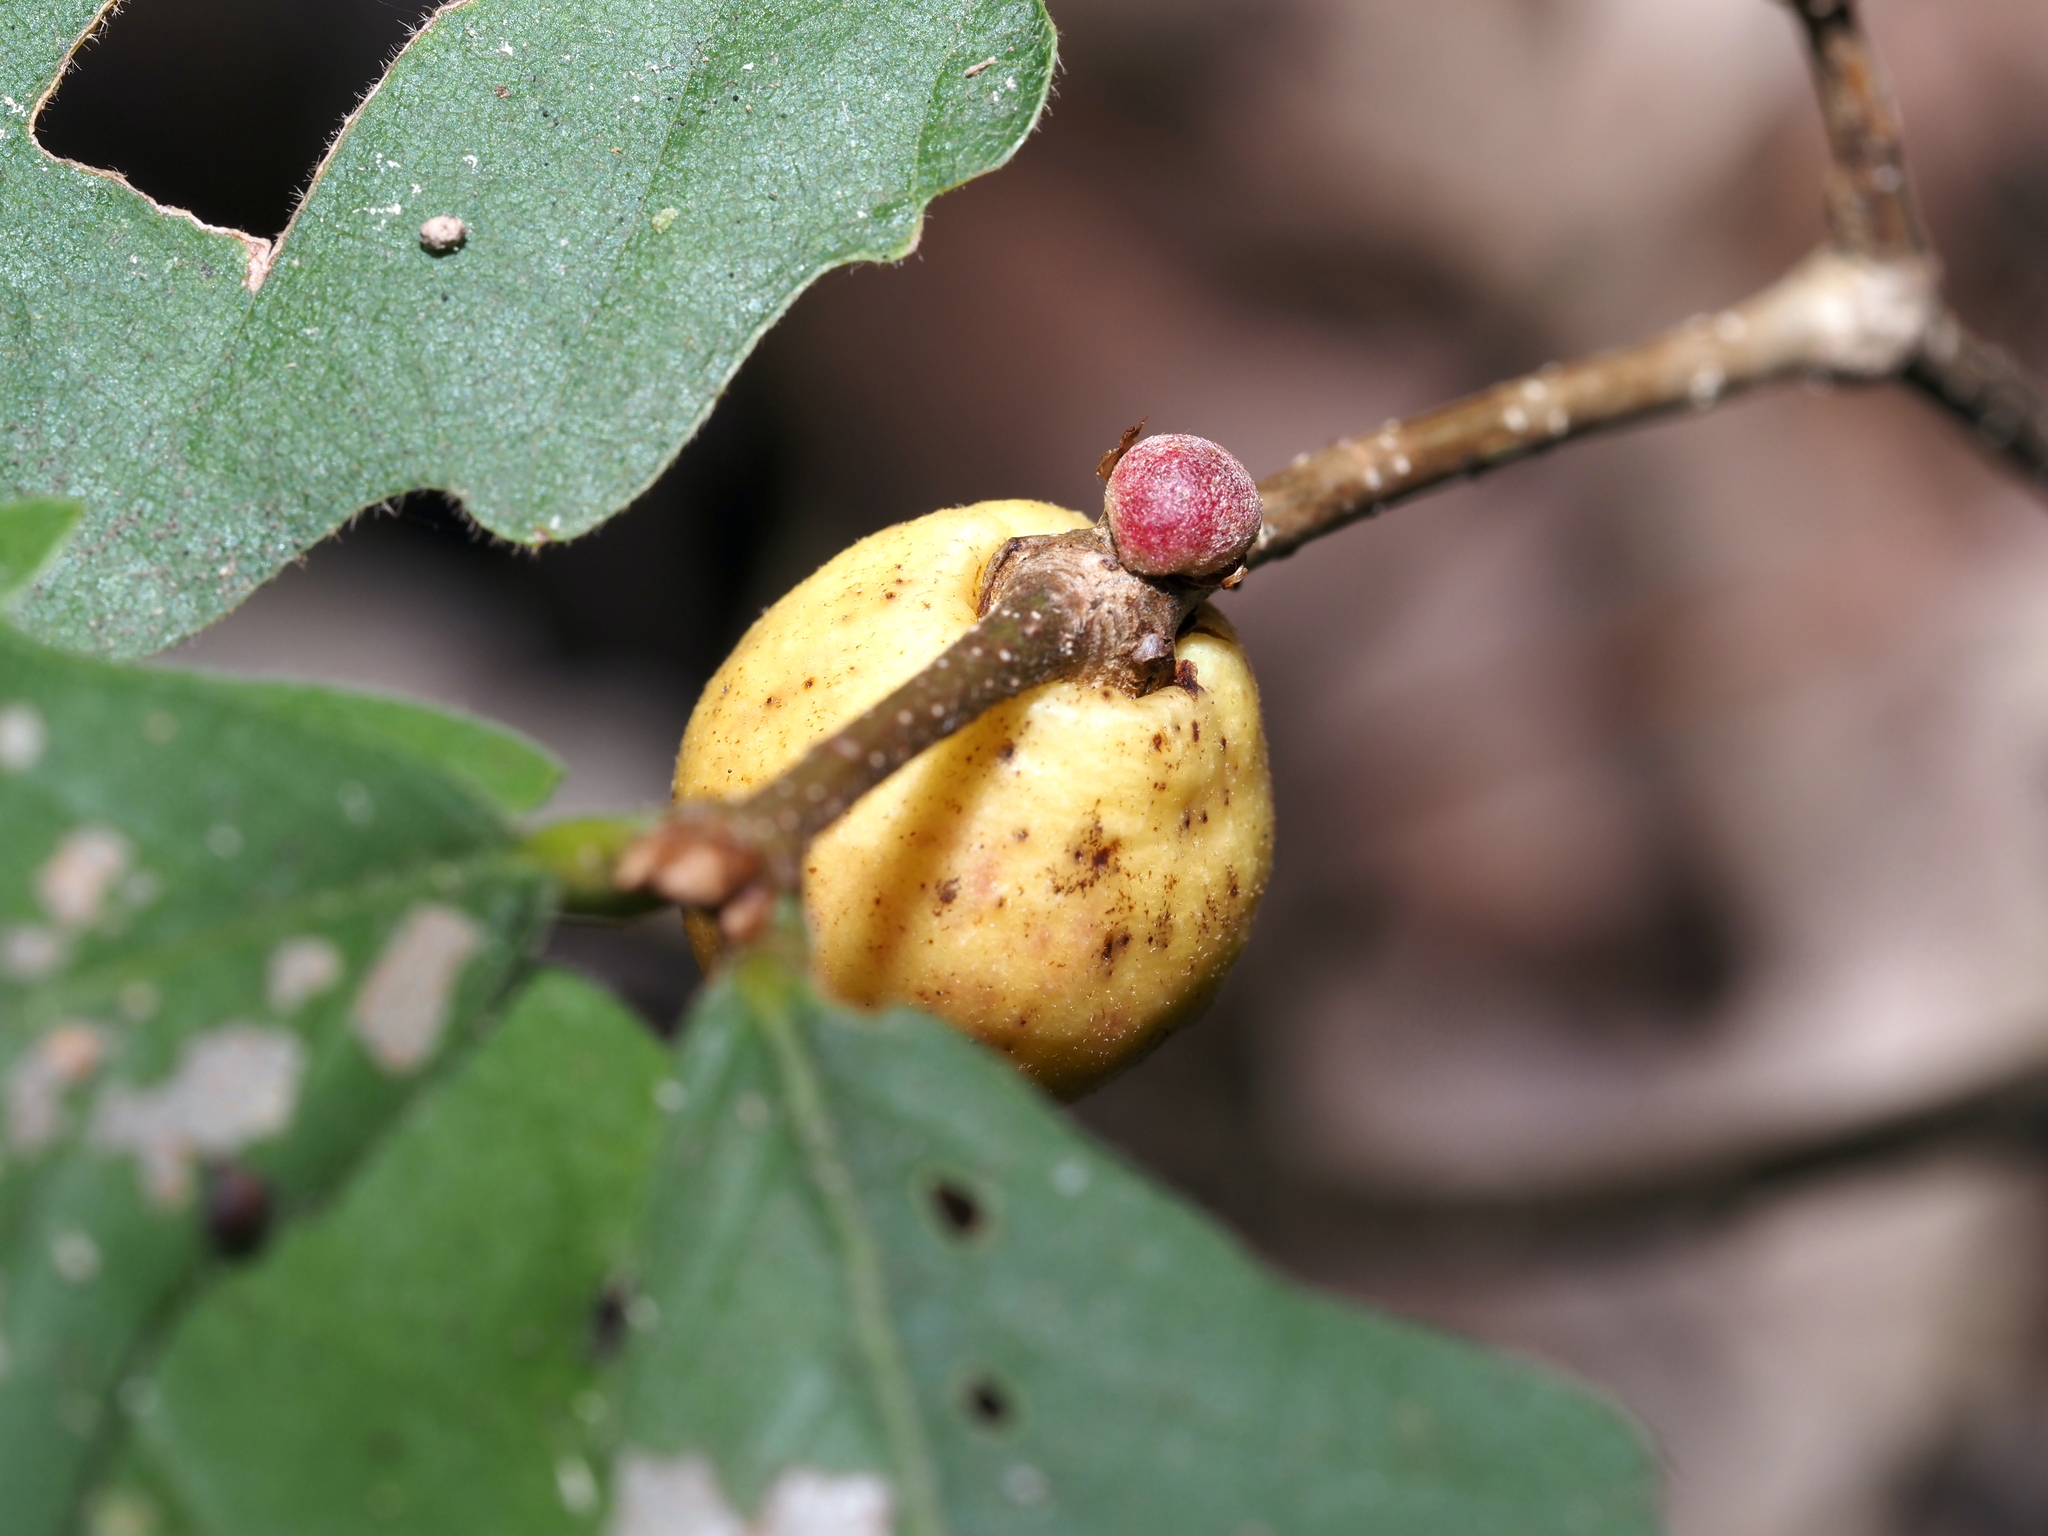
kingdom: Animalia
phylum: Arthropoda
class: Insecta
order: Hymenoptera
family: Cynipidae
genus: Disholcaspis
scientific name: Disholcaspis quercusglobulus
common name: Round bullet gall wasp
